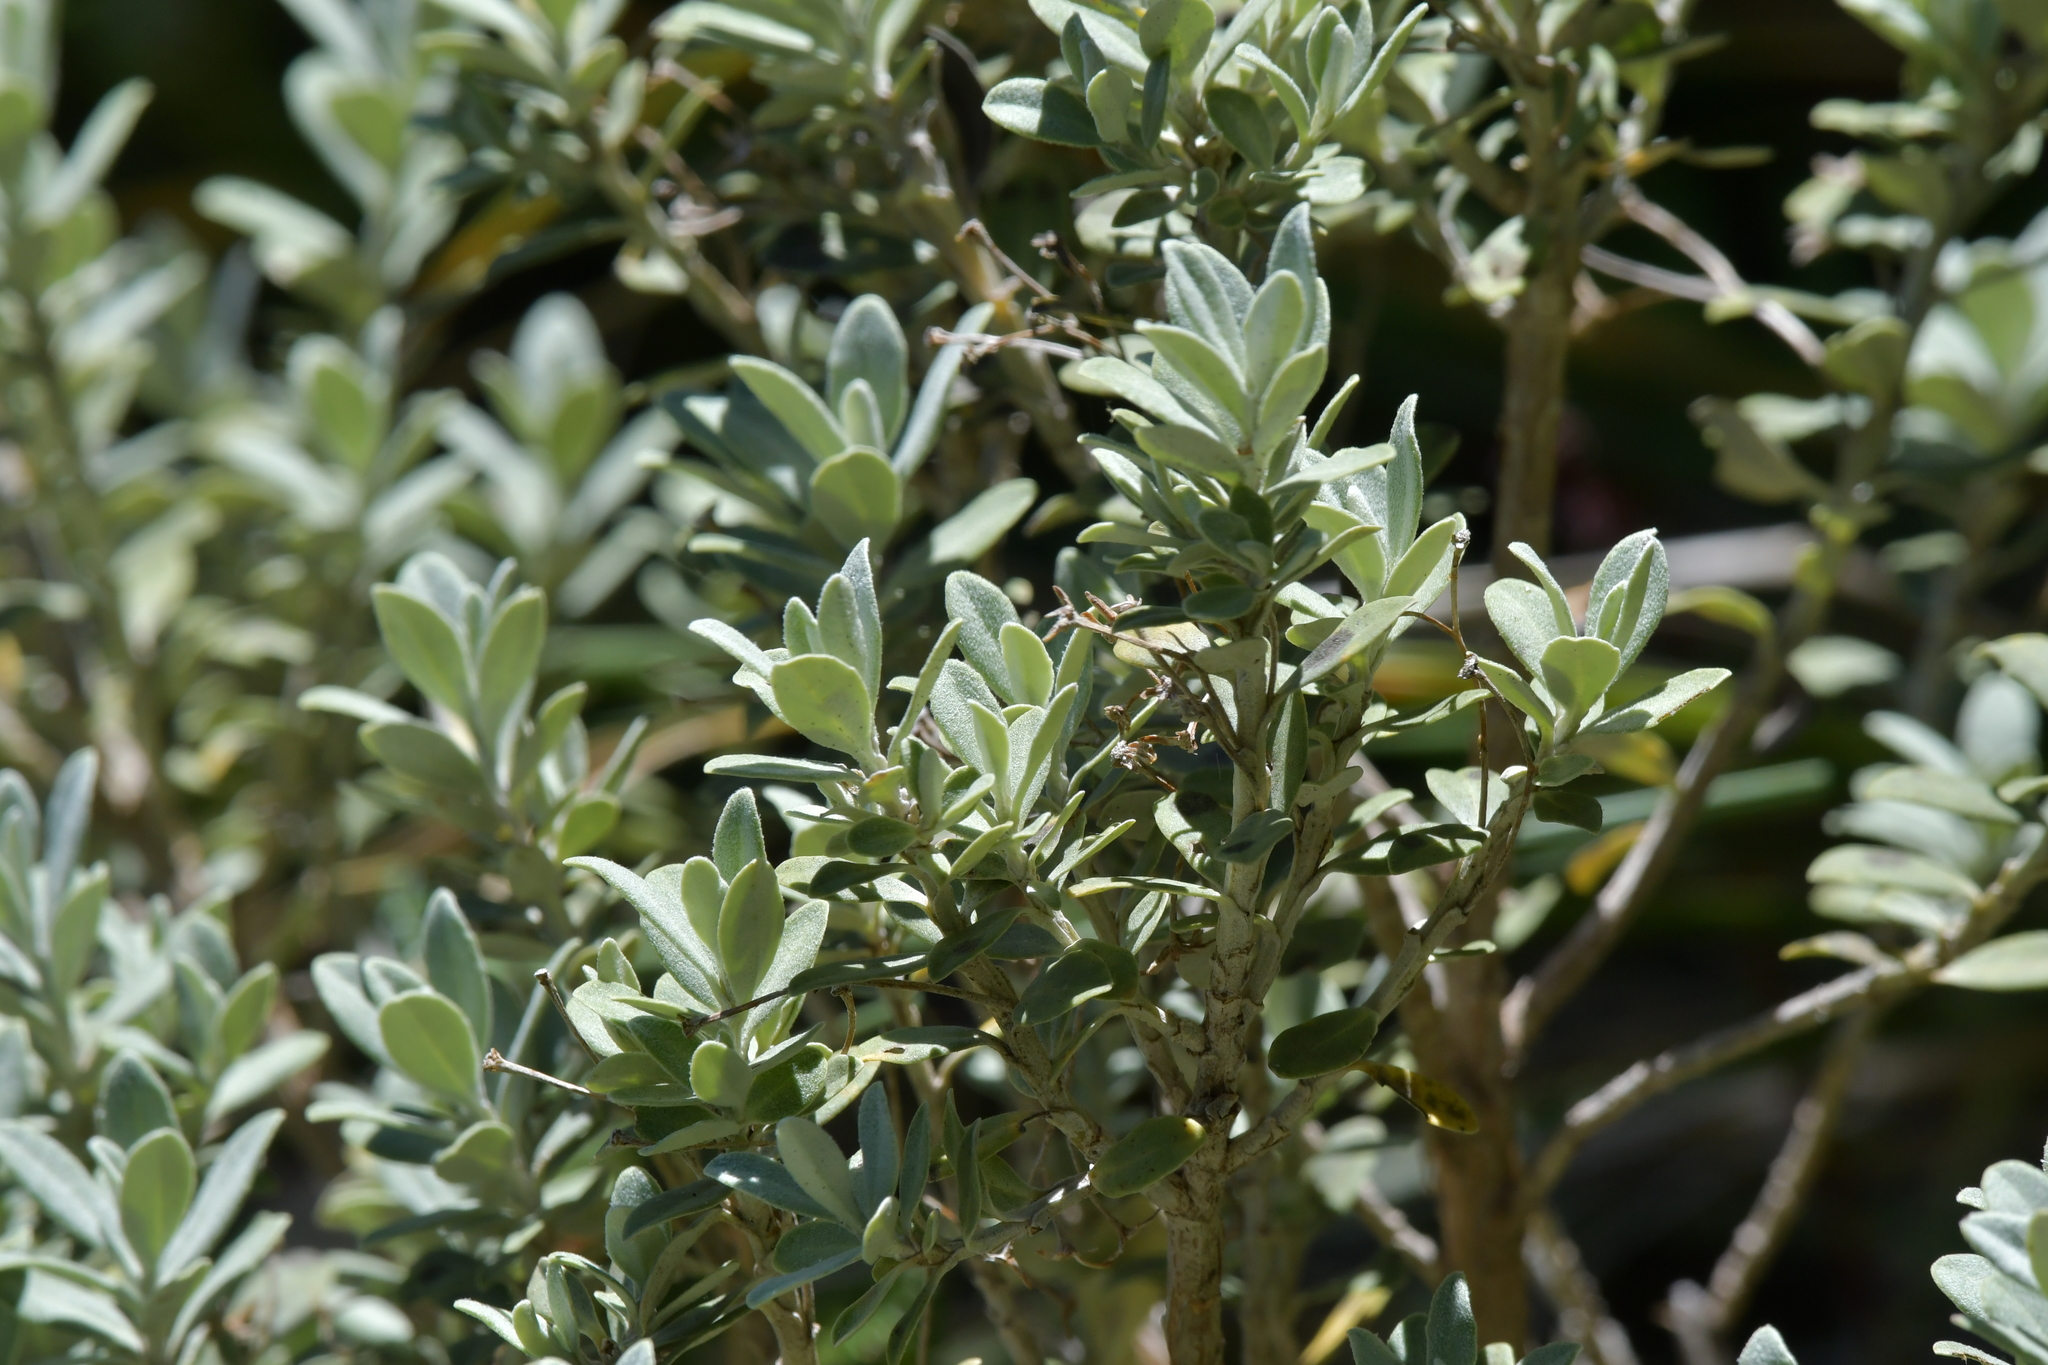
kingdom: Plantae
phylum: Tracheophyta
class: Magnoliopsida
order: Asterales
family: Asteraceae
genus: Olearia
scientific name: Olearia moschata
